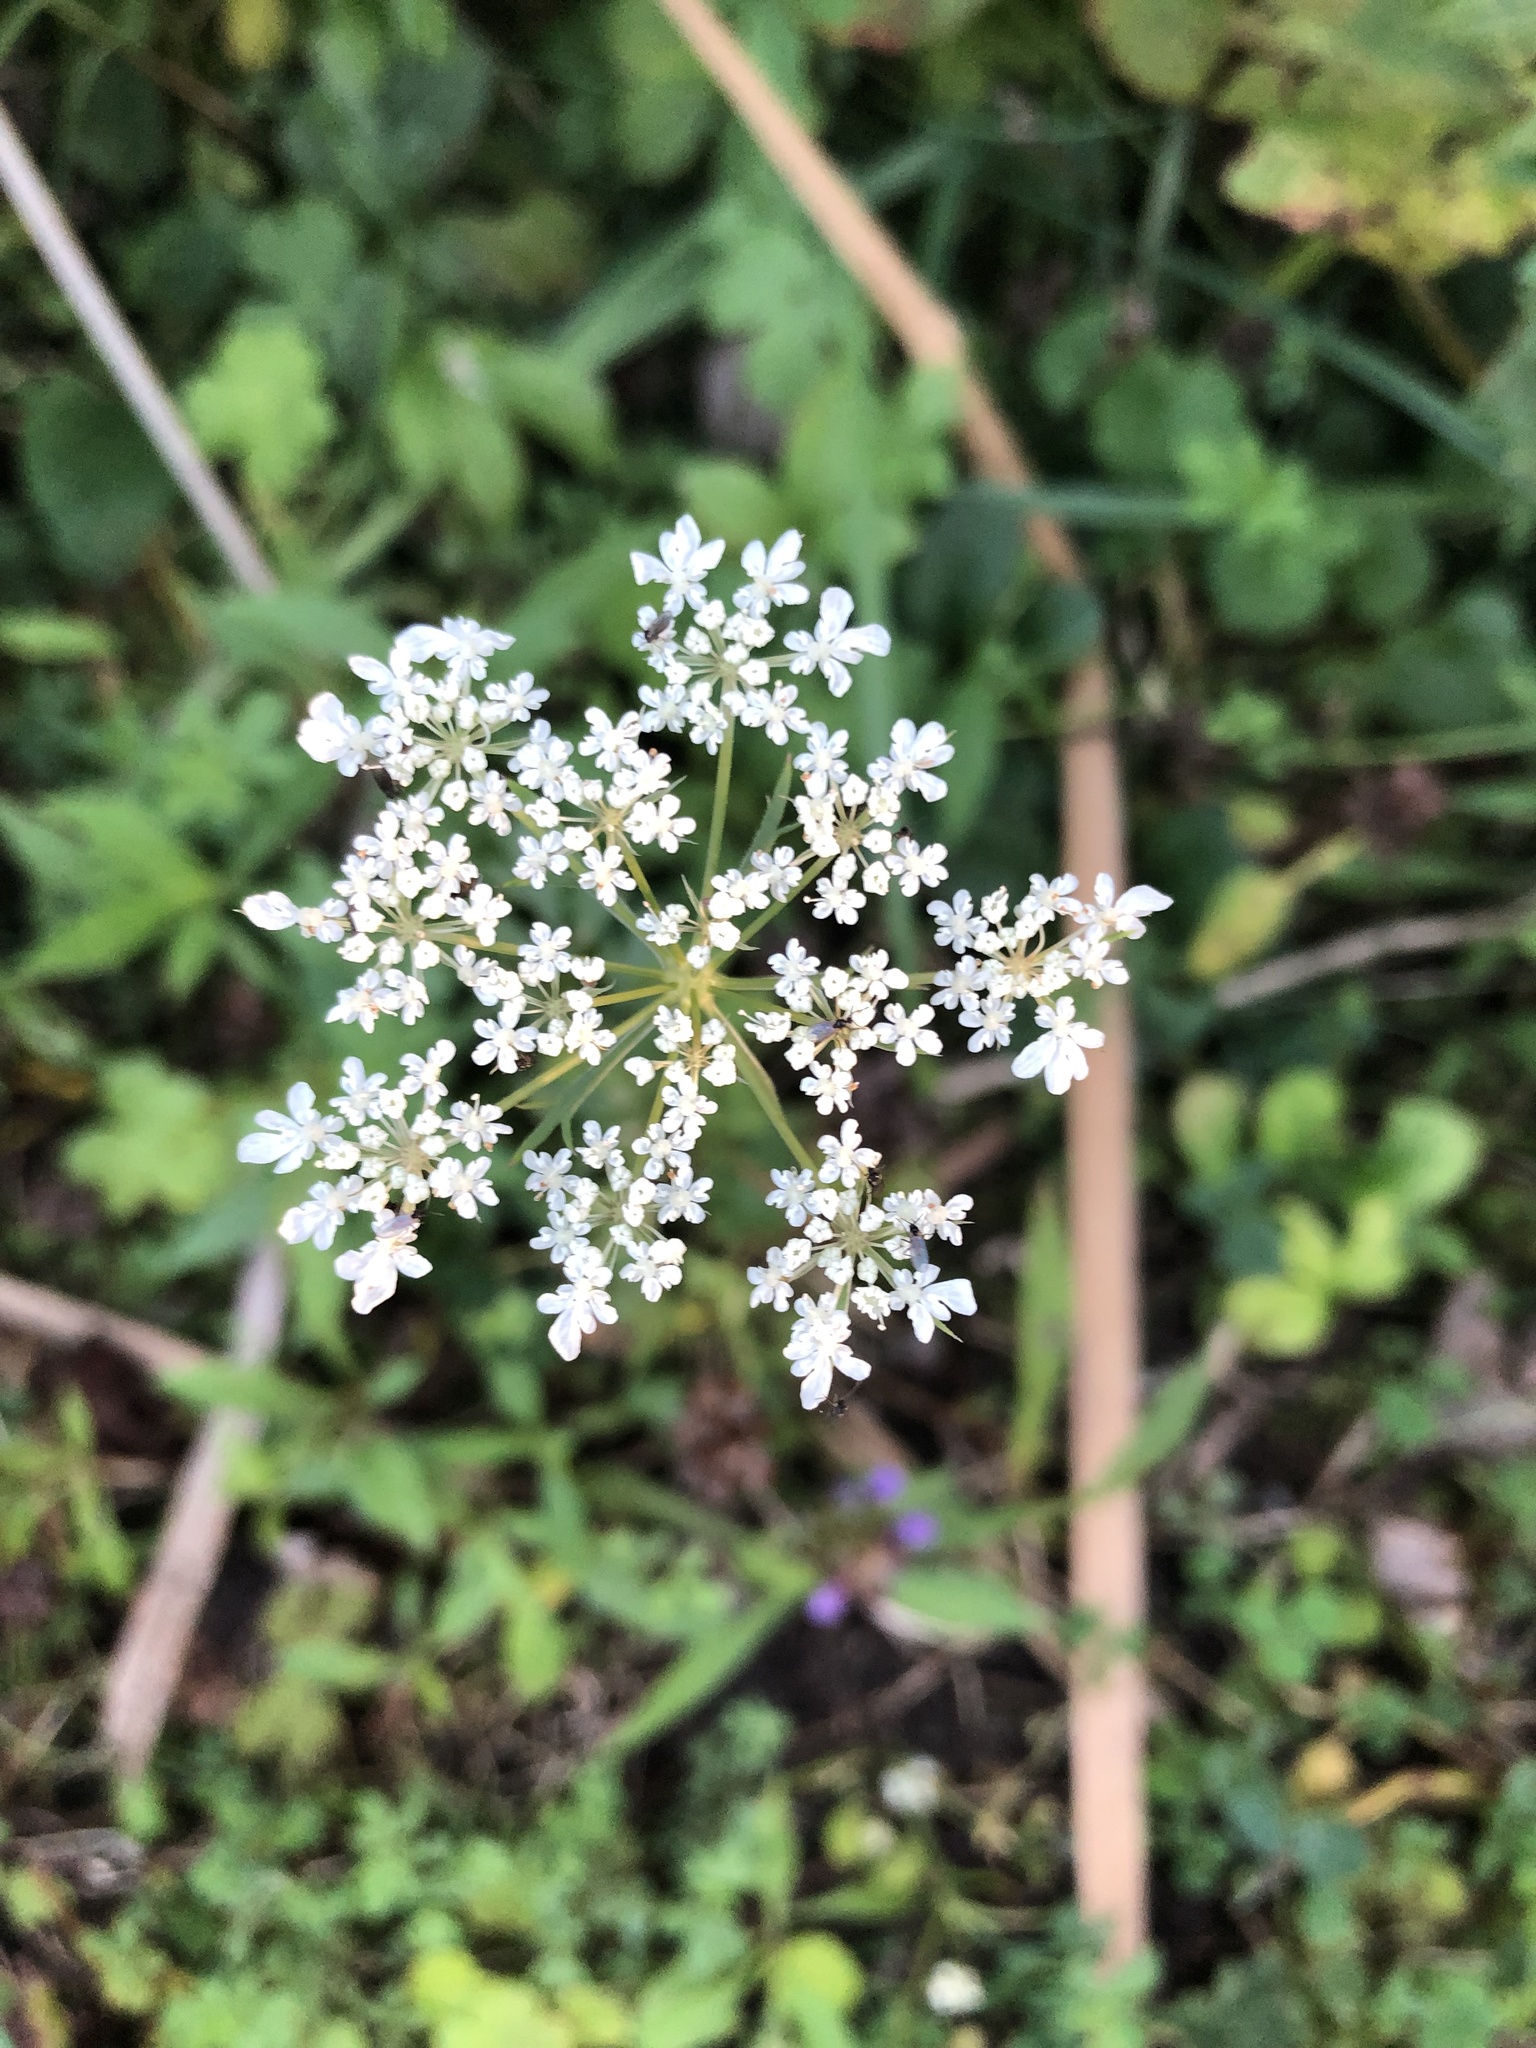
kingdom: Plantae
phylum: Tracheophyta
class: Magnoliopsida
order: Apiales
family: Apiaceae
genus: Daucus
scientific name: Daucus carota
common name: Wild carrot
